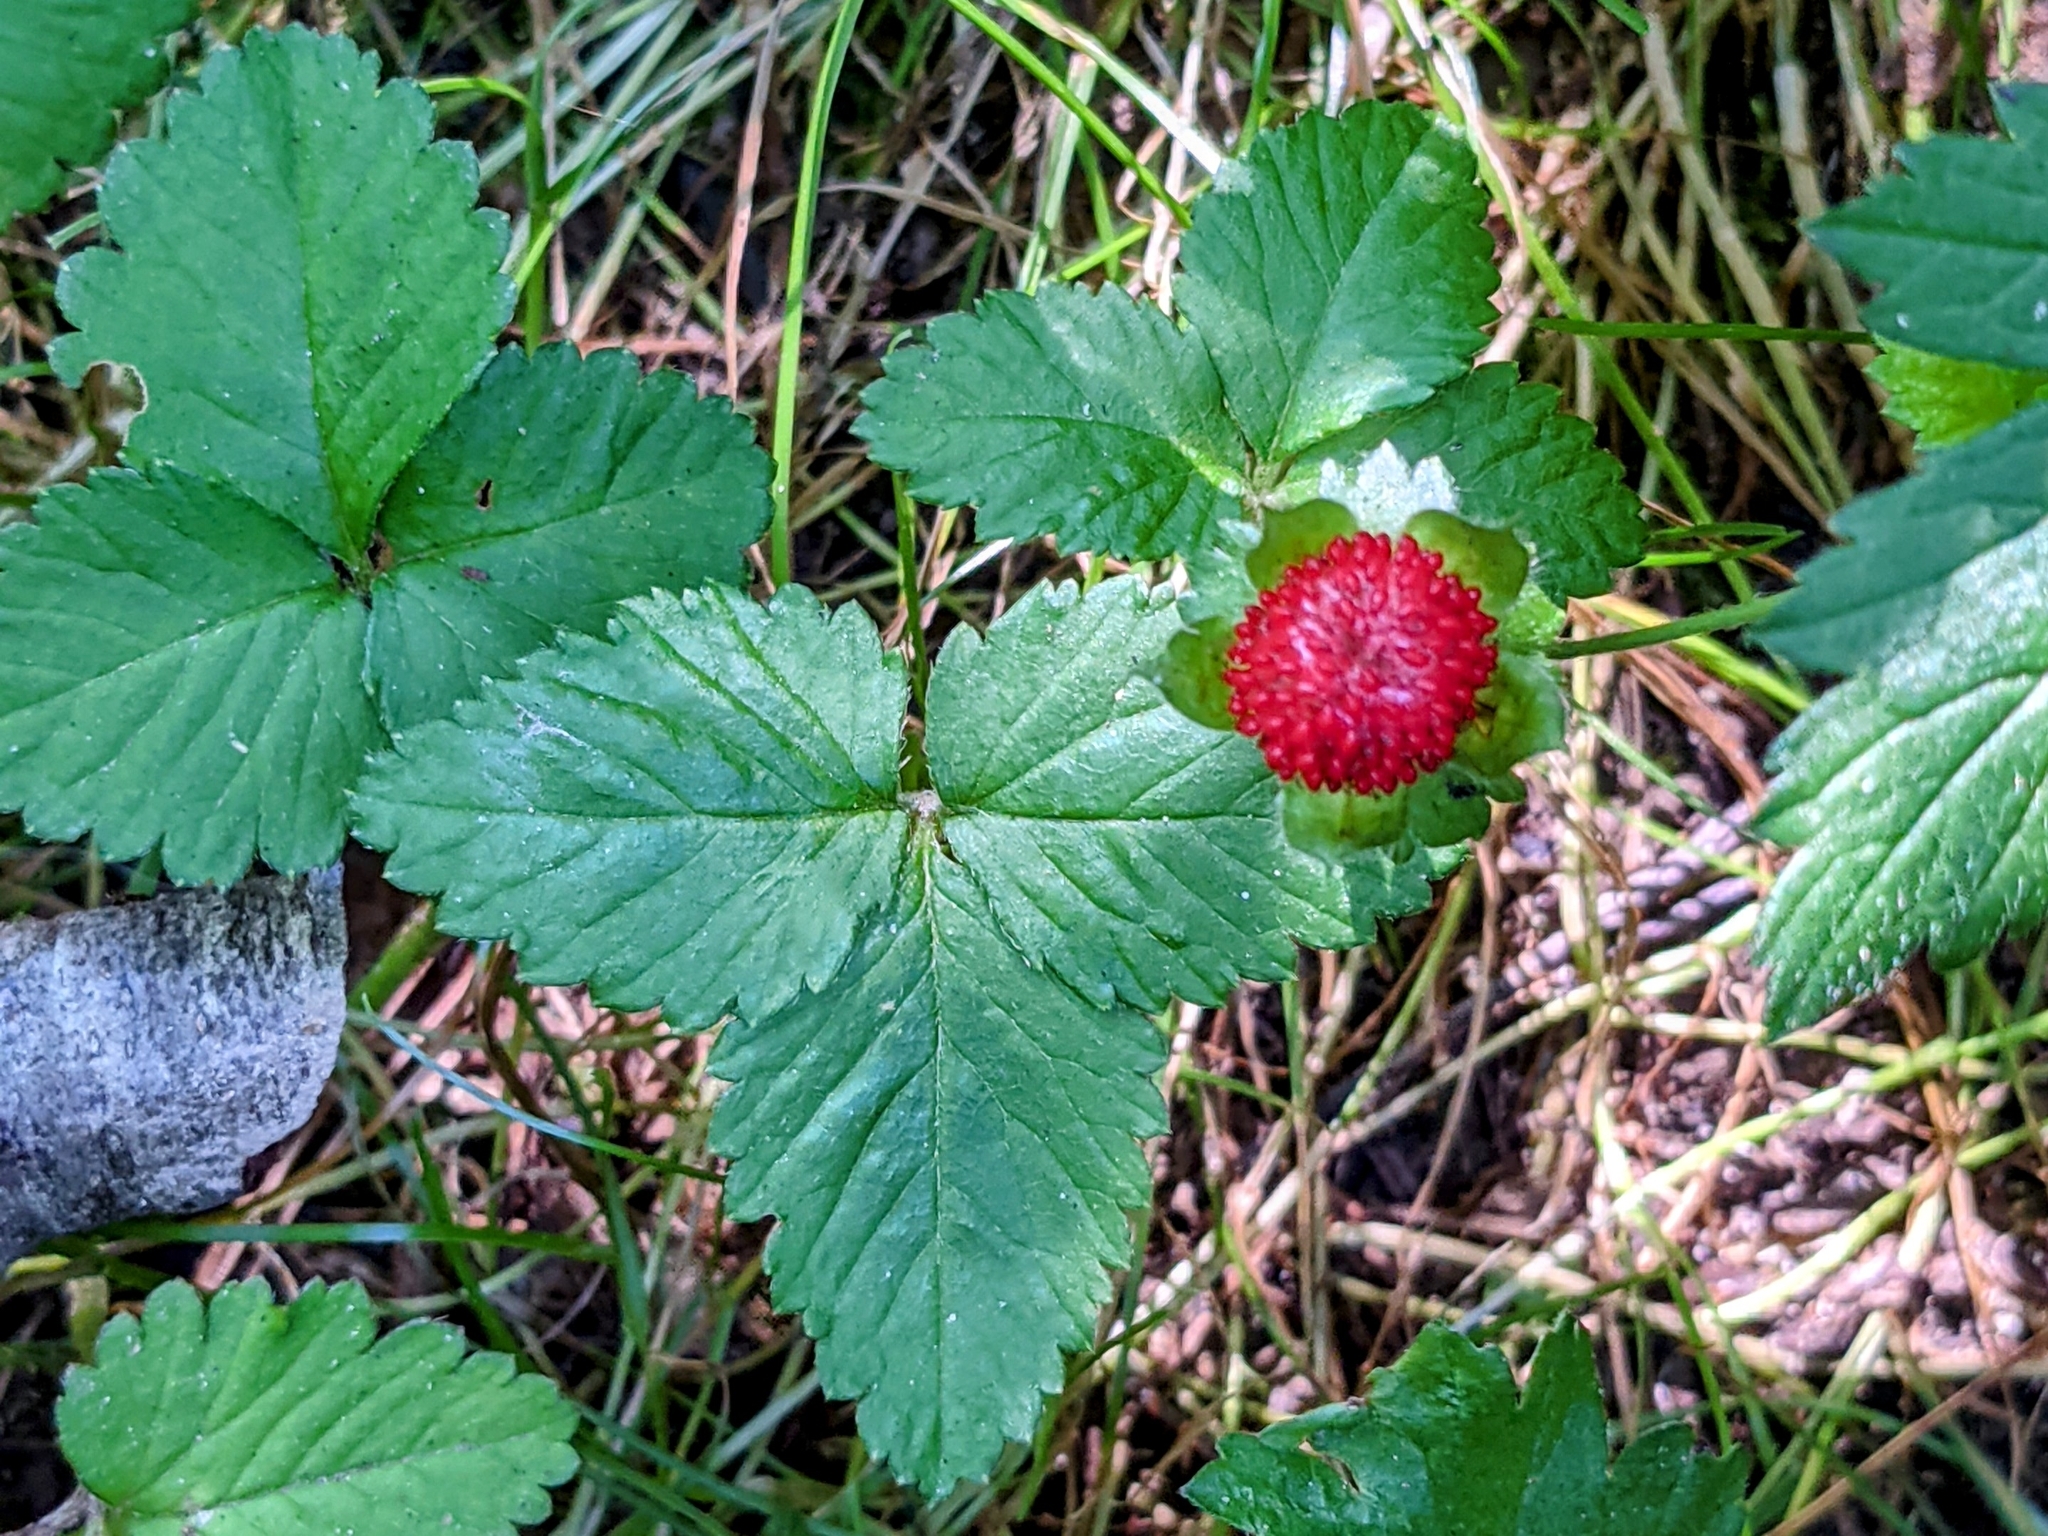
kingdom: Plantae
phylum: Tracheophyta
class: Magnoliopsida
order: Rosales
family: Rosaceae
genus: Potentilla
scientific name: Potentilla indica
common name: Yellow-flowered strawberry
